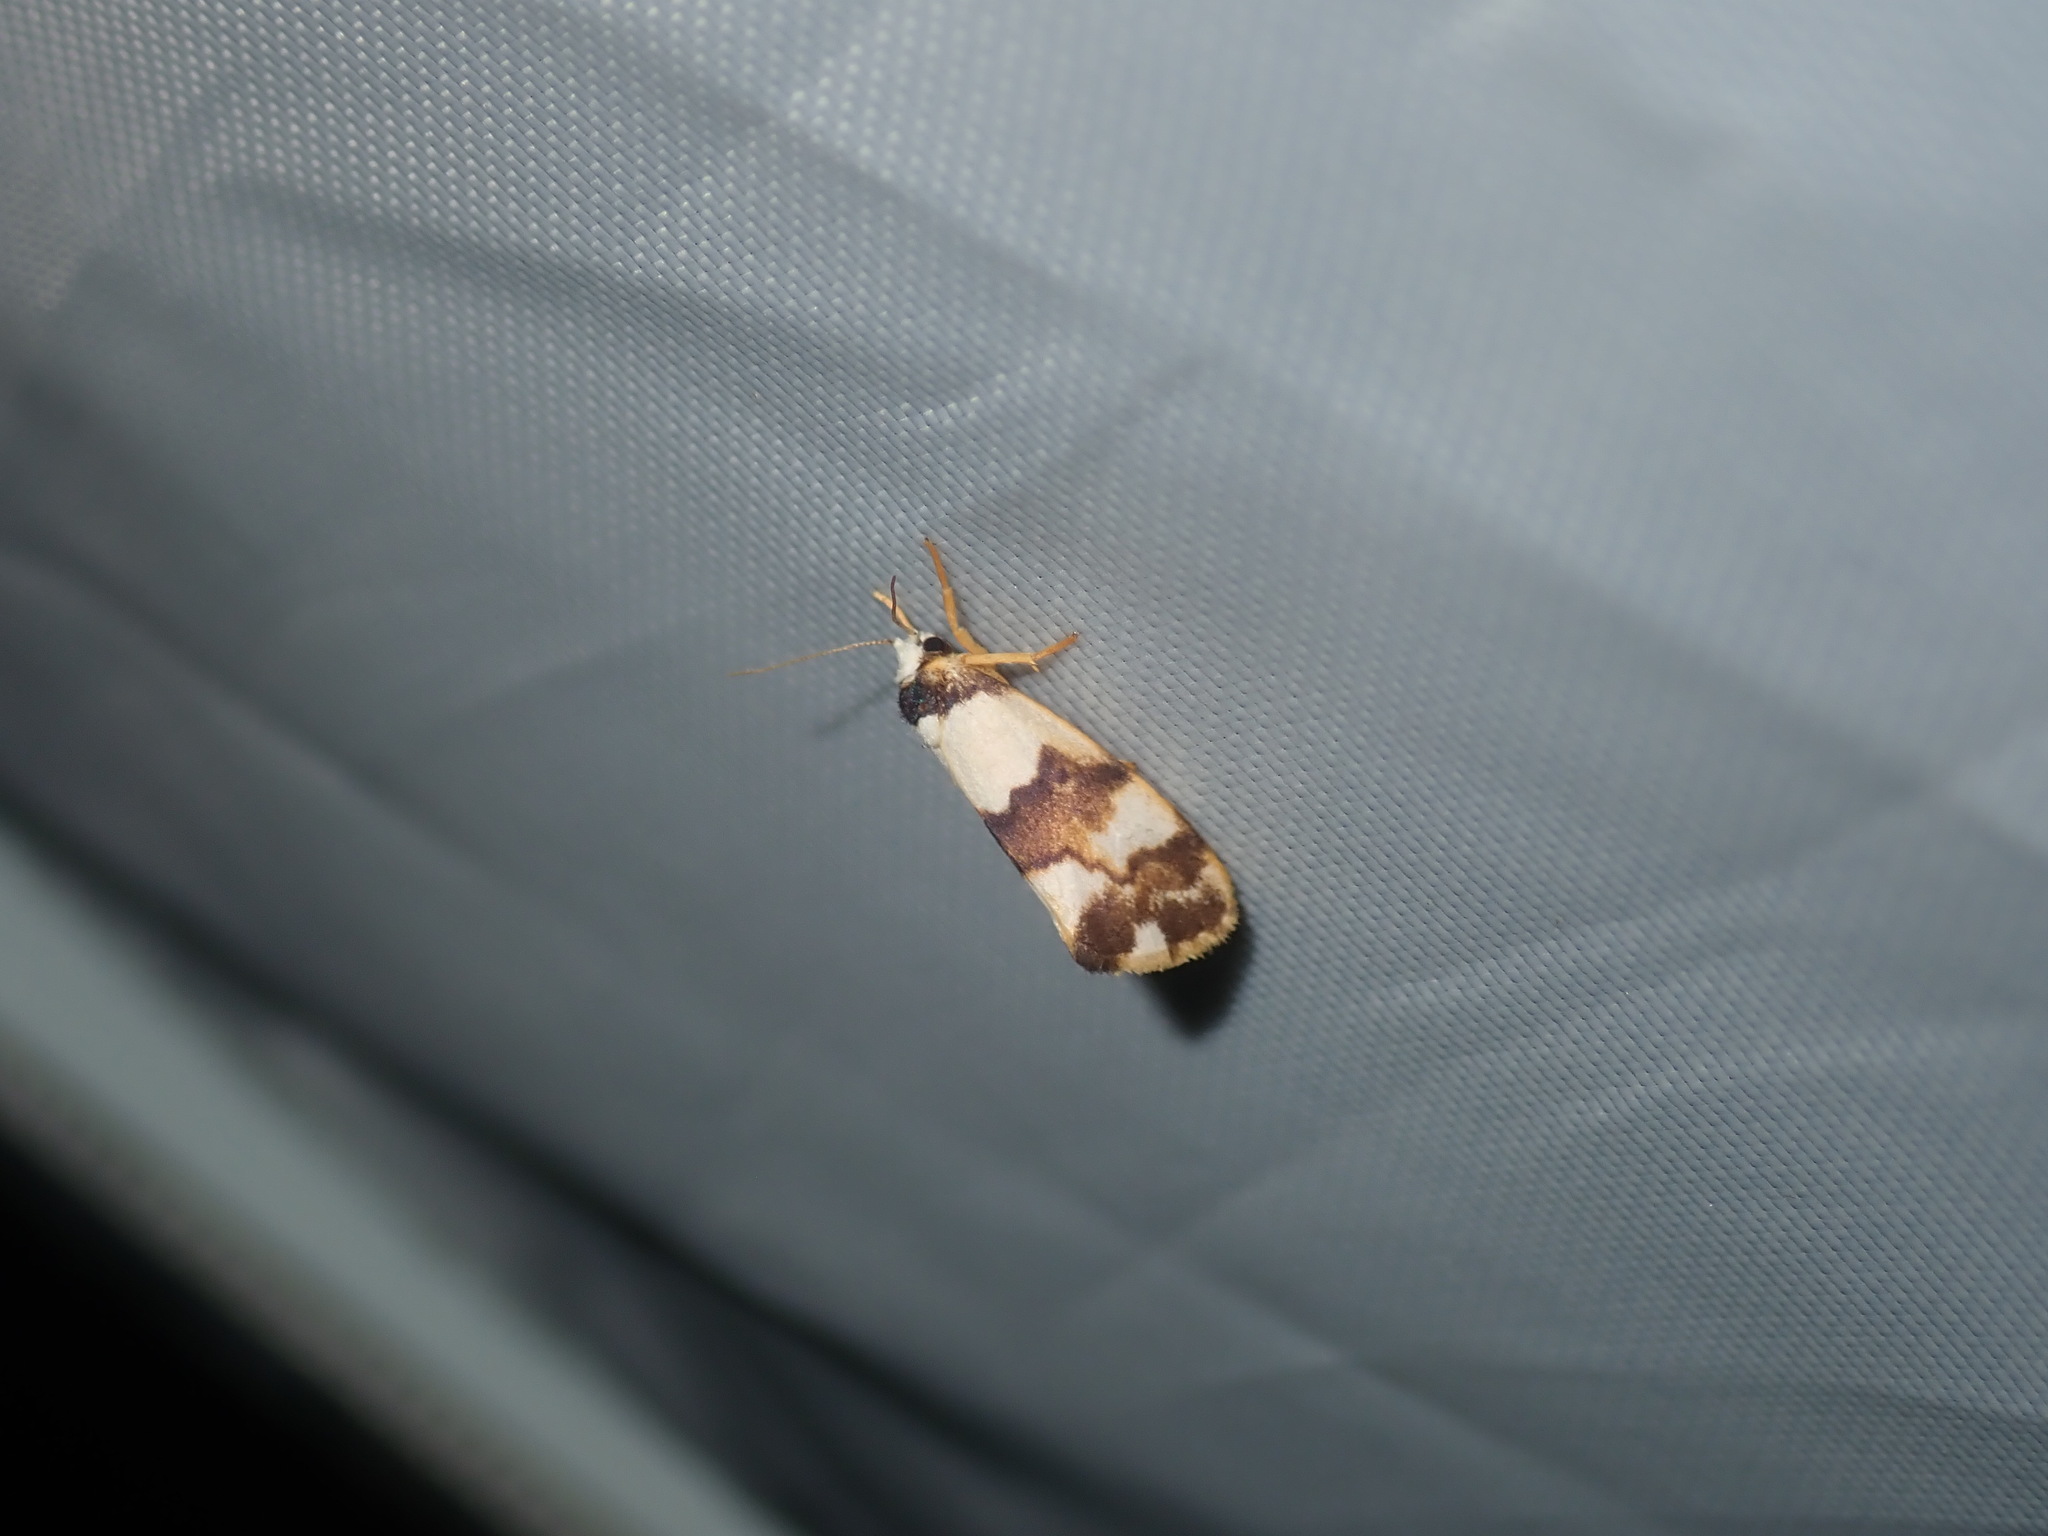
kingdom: Animalia
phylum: Arthropoda
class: Insecta
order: Lepidoptera
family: Erebidae
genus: Philenora
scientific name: Philenora aspectalella
